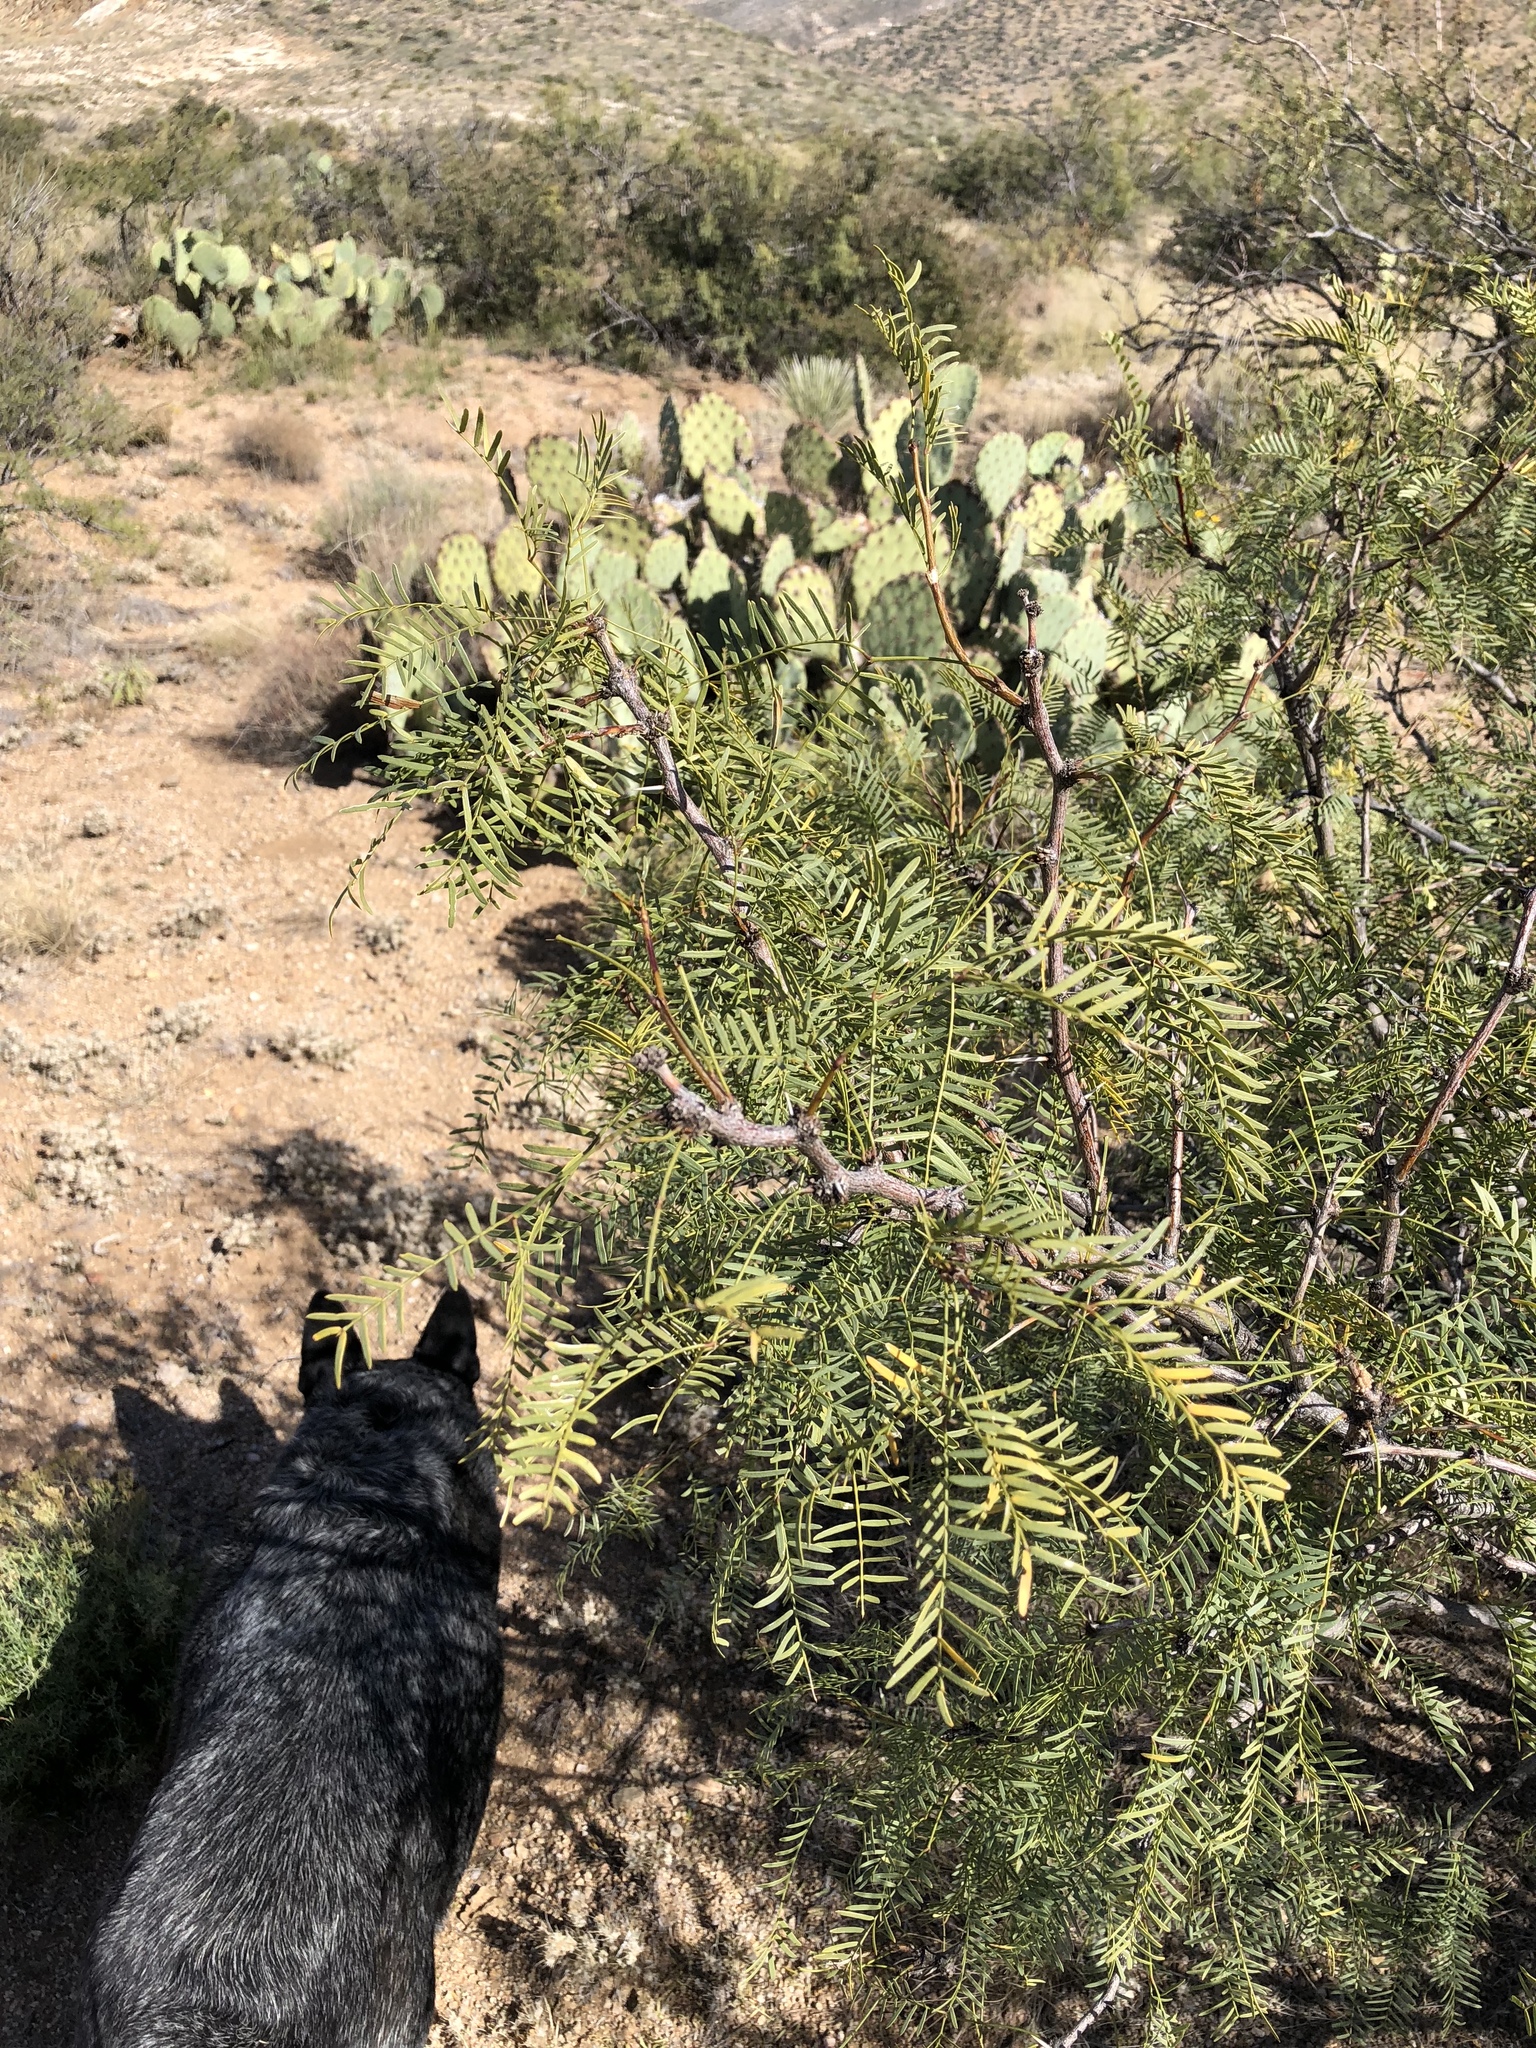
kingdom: Plantae
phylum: Tracheophyta
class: Magnoliopsida
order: Fabales
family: Fabaceae
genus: Prosopis
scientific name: Prosopis glandulosa
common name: Honey mesquite
